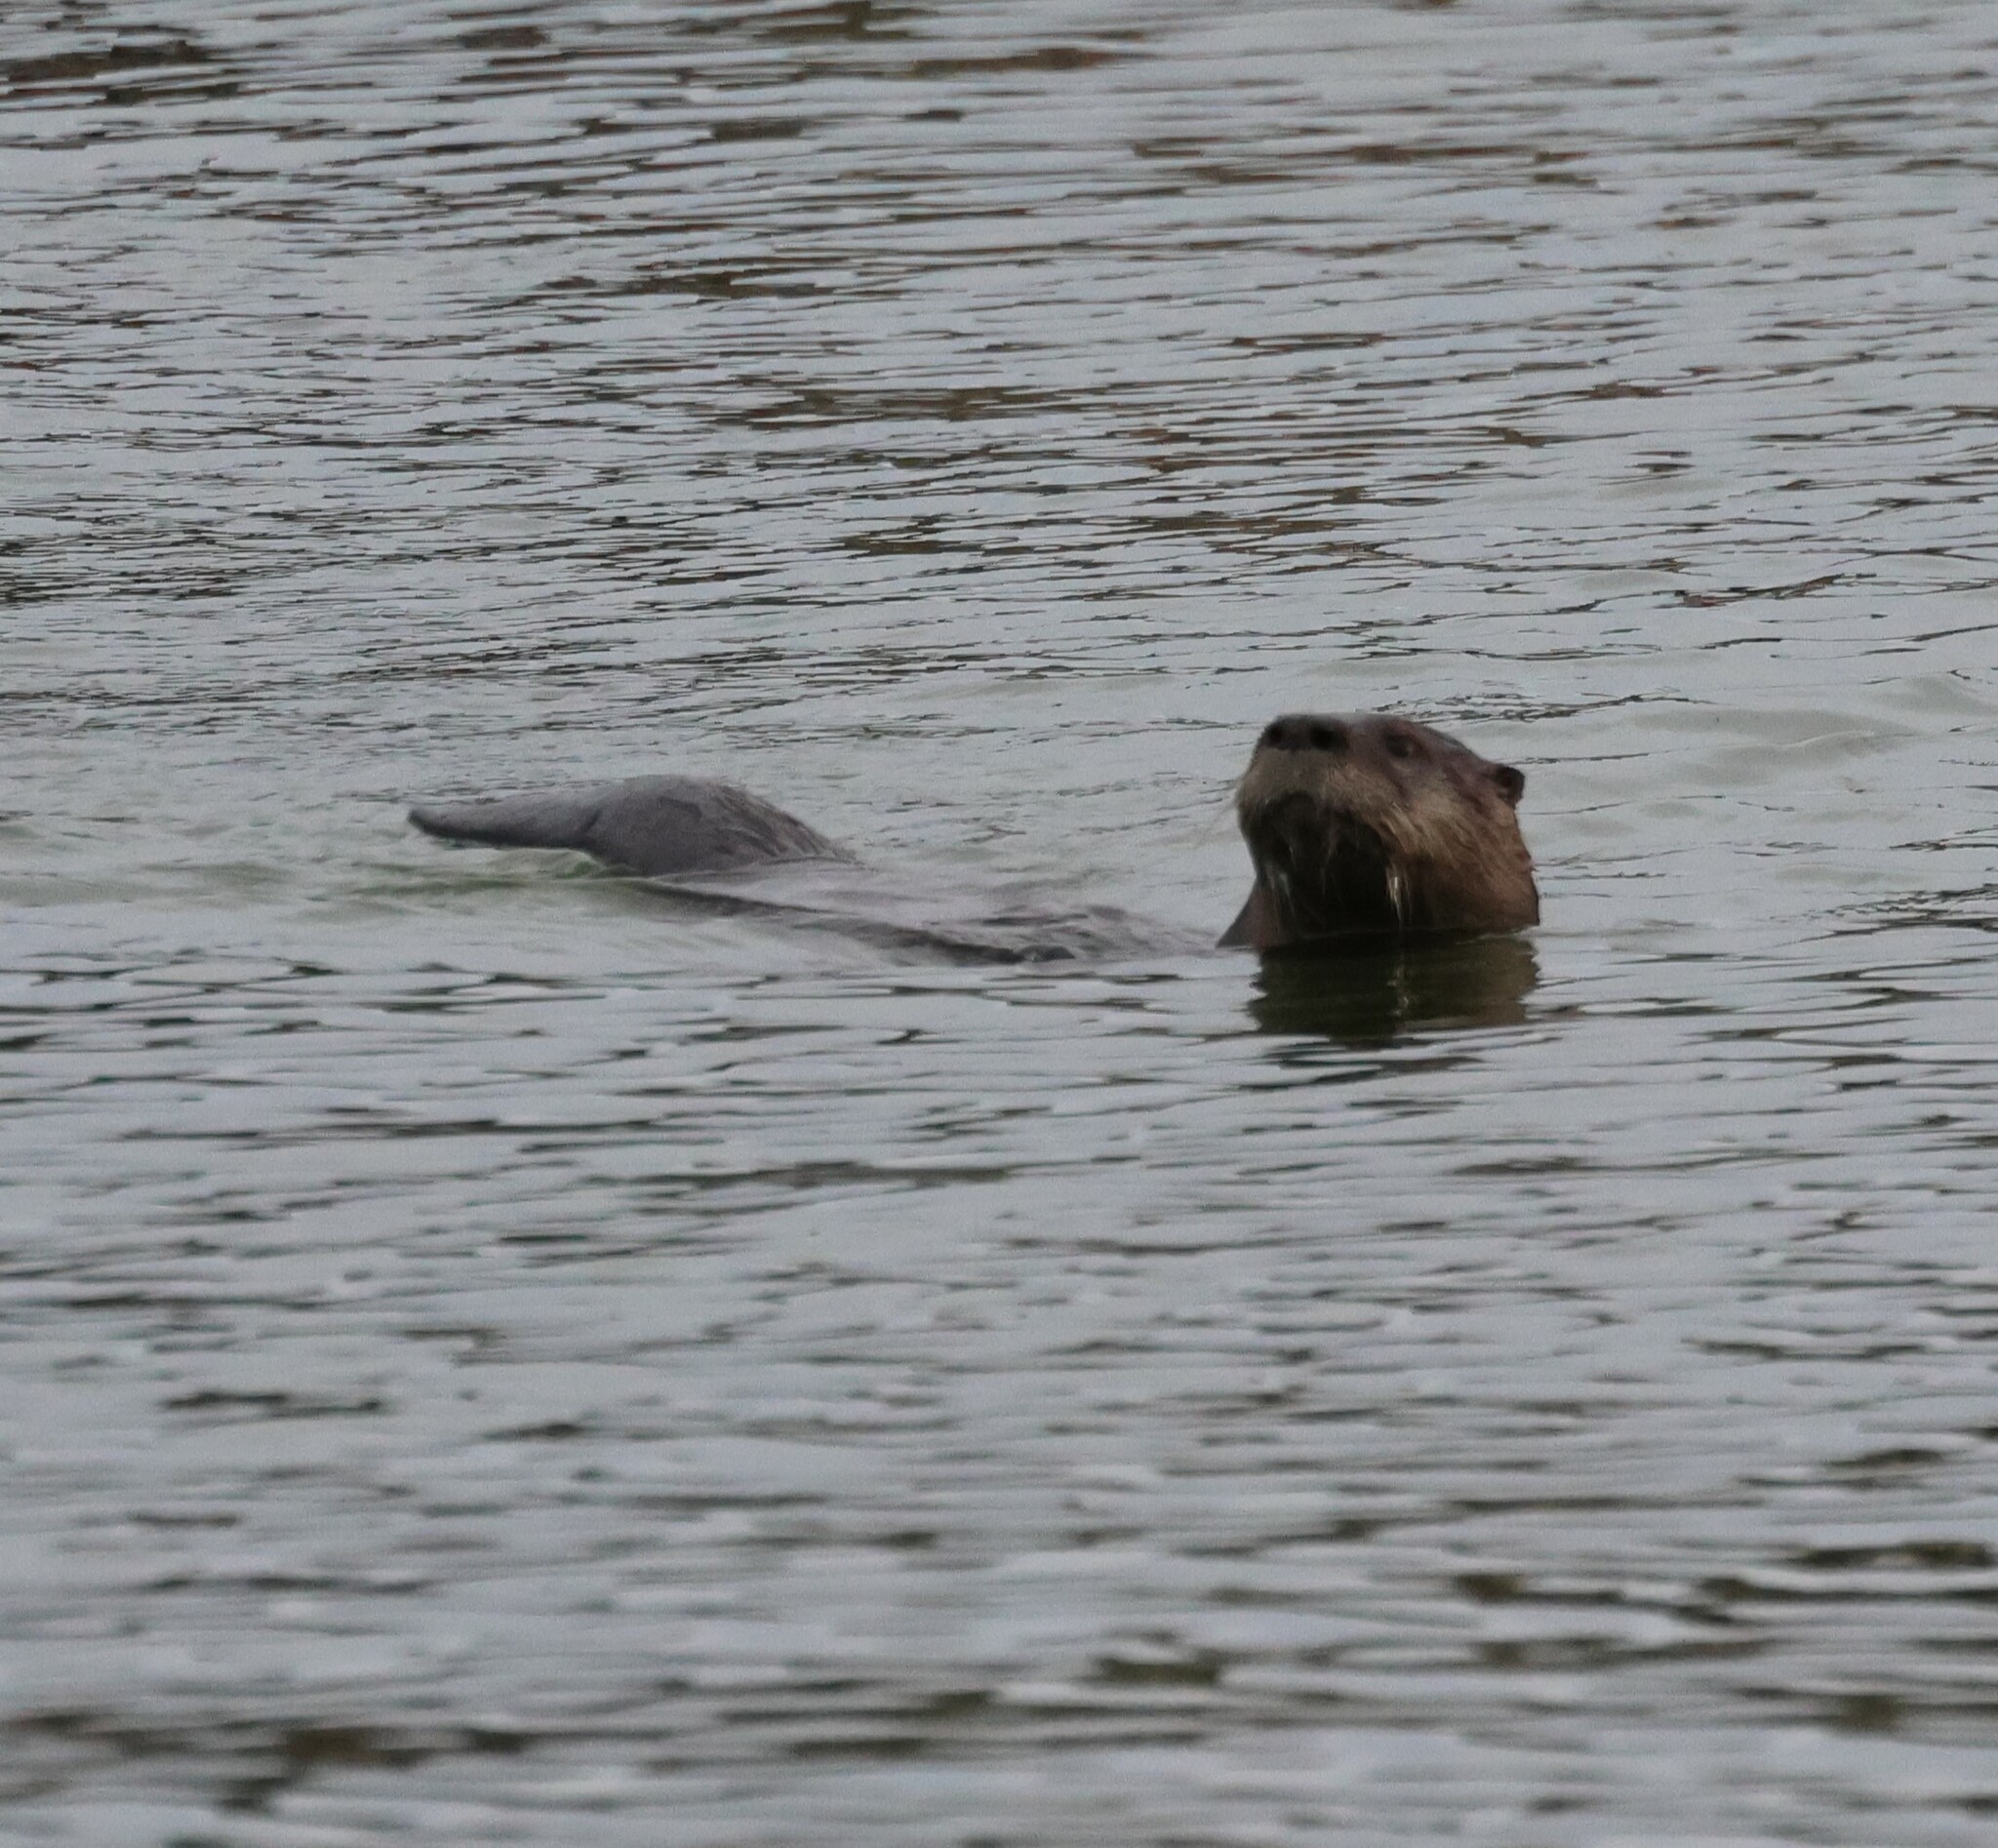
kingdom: Animalia
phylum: Chordata
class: Mammalia
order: Carnivora
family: Mustelidae
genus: Lontra
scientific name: Lontra canadensis
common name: North american river otter
